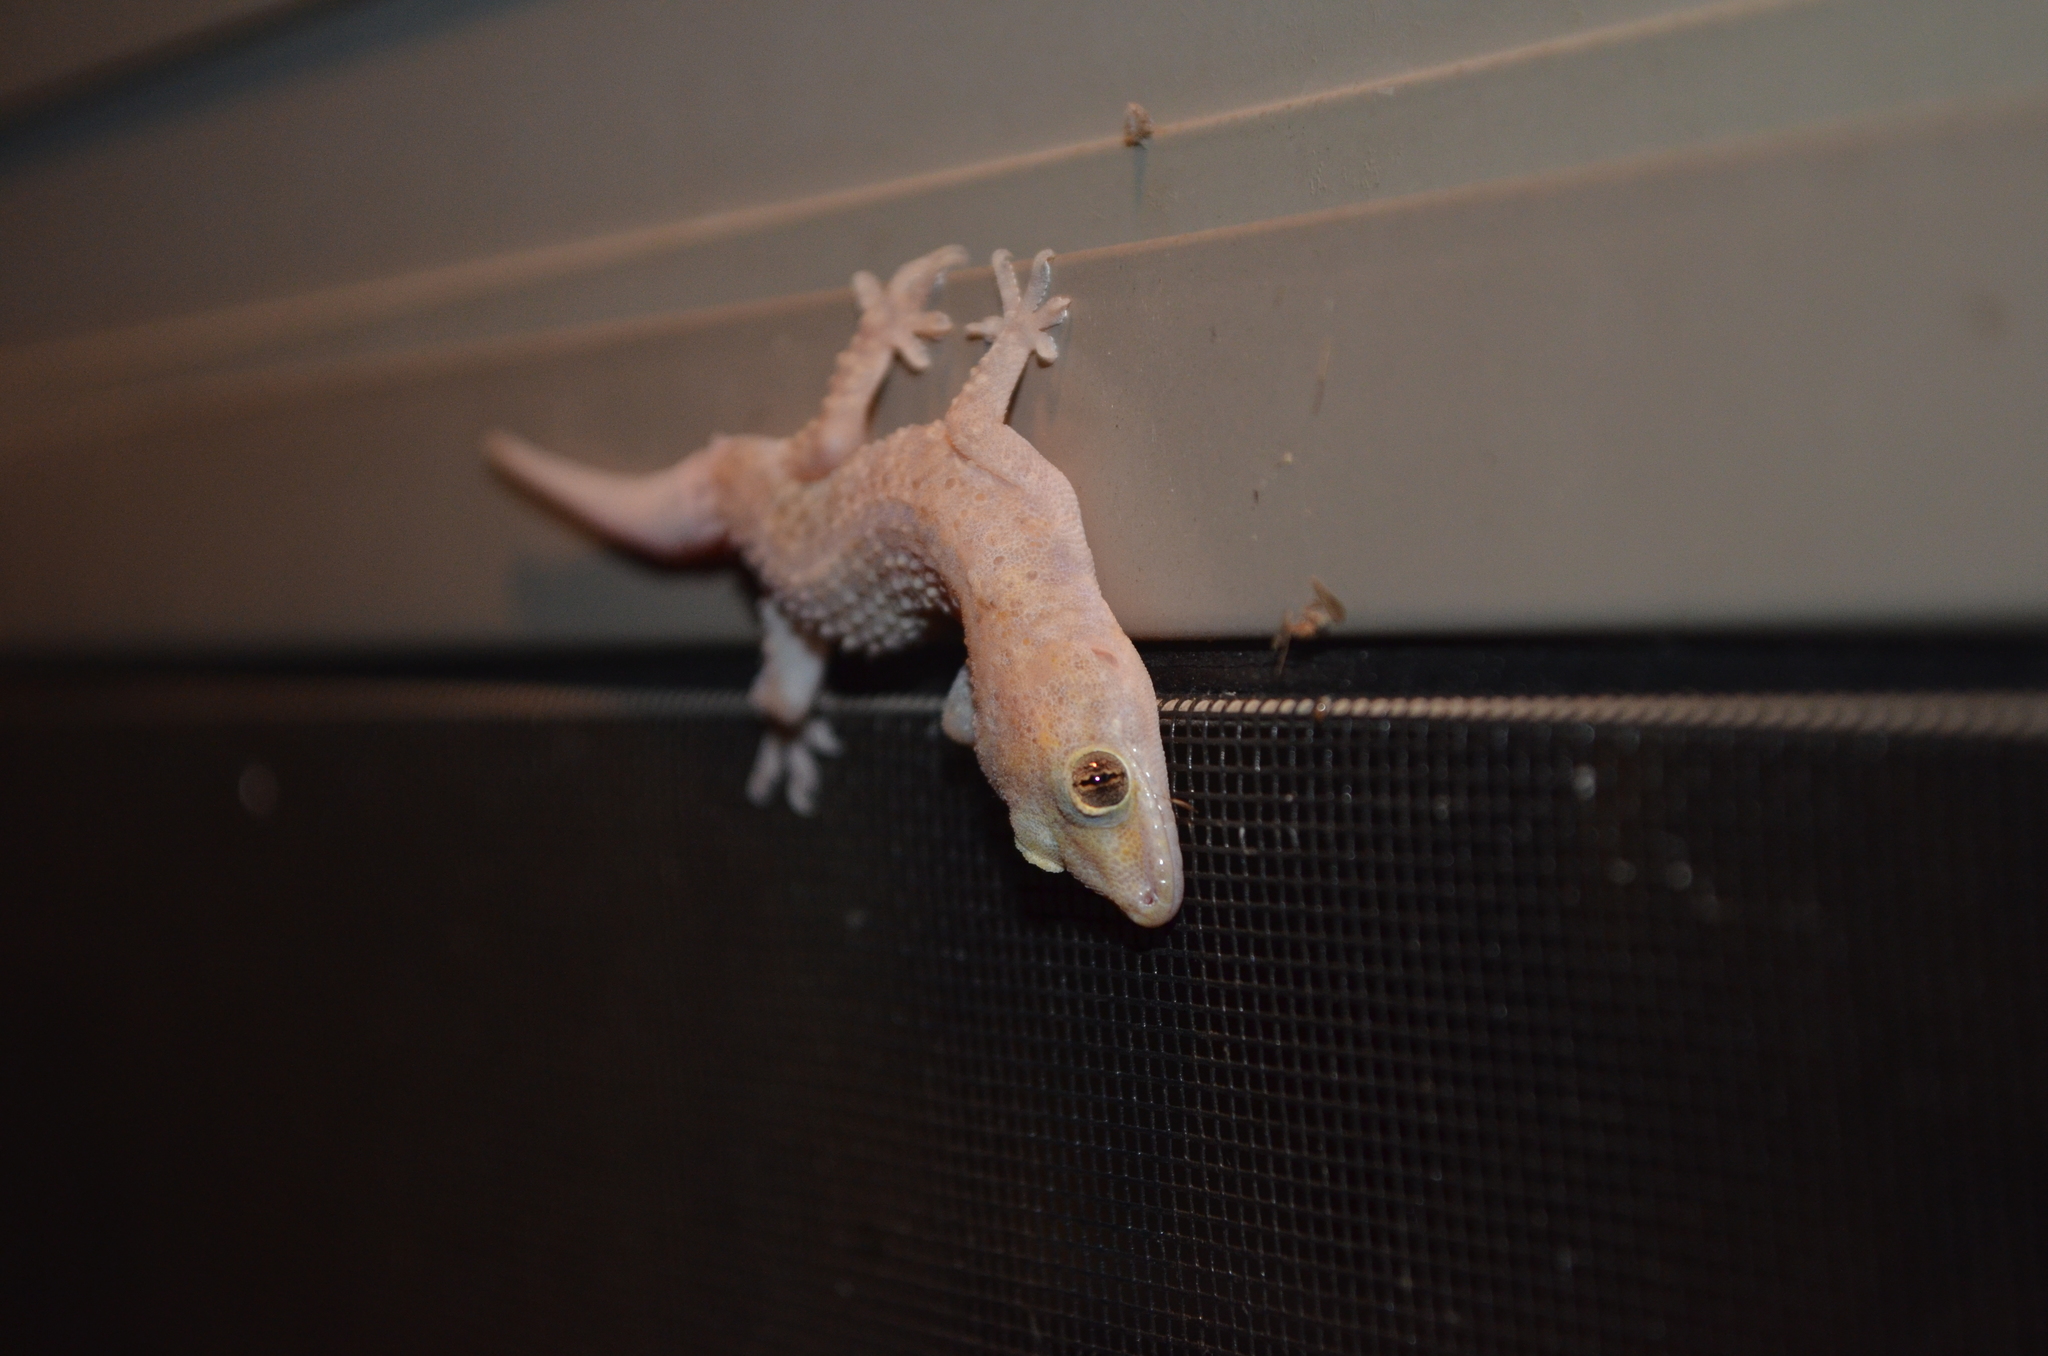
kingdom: Animalia
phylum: Chordata
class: Squamata
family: Gekkonidae
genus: Hemidactylus
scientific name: Hemidactylus turcicus
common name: Turkish gecko
